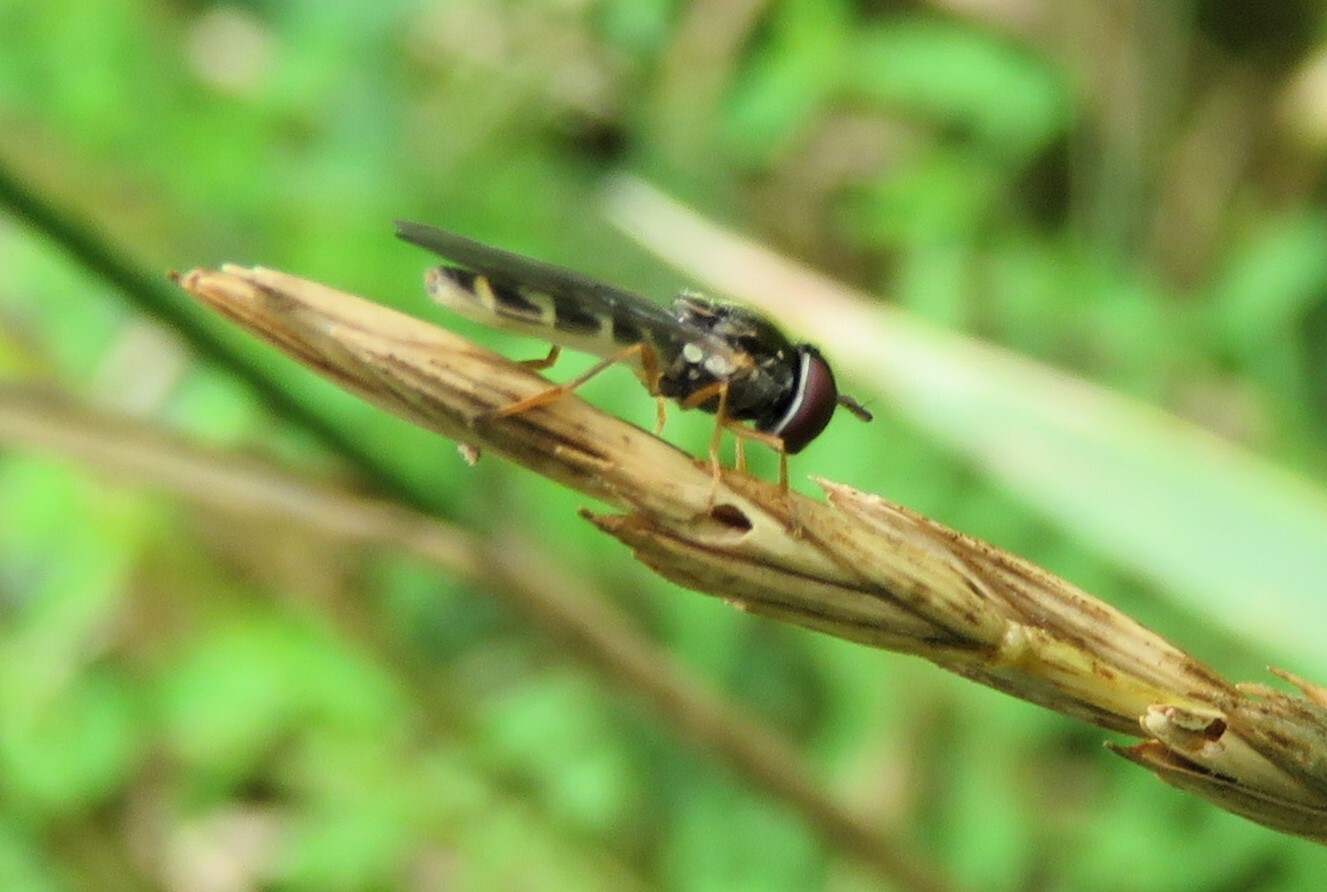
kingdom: Animalia
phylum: Arthropoda
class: Insecta
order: Diptera
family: Syrphidae
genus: Melanostoma
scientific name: Melanostoma mellina
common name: Hover fly
